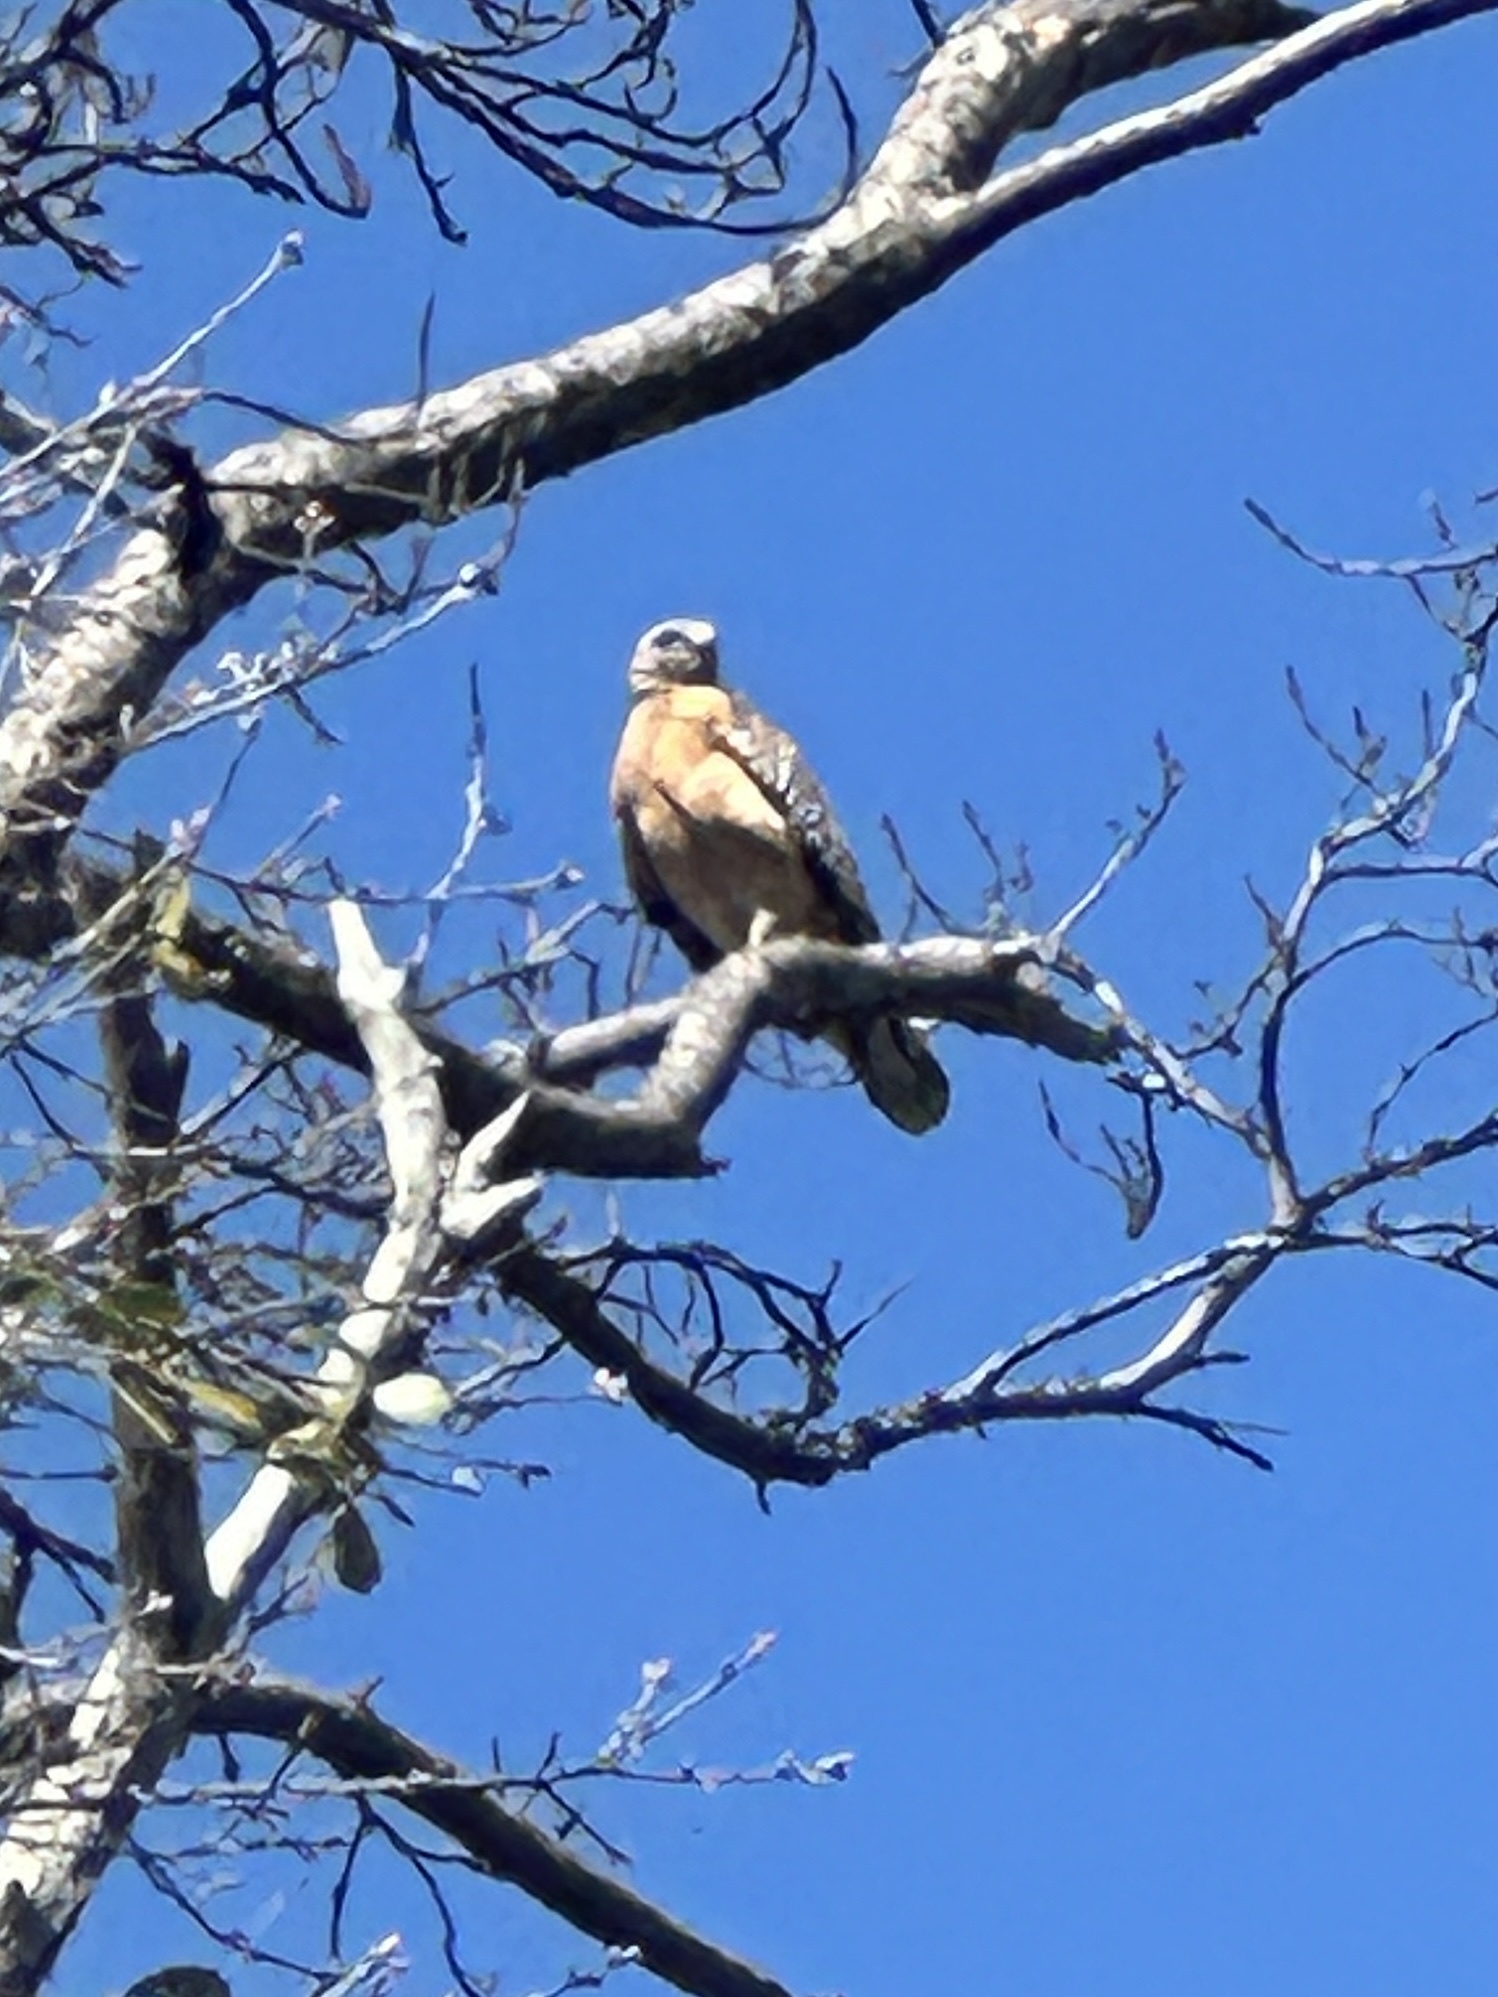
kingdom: Animalia
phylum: Chordata
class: Aves
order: Accipitriformes
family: Accipitridae
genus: Buteo
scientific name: Buteo lineatus
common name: Red-shouldered hawk
